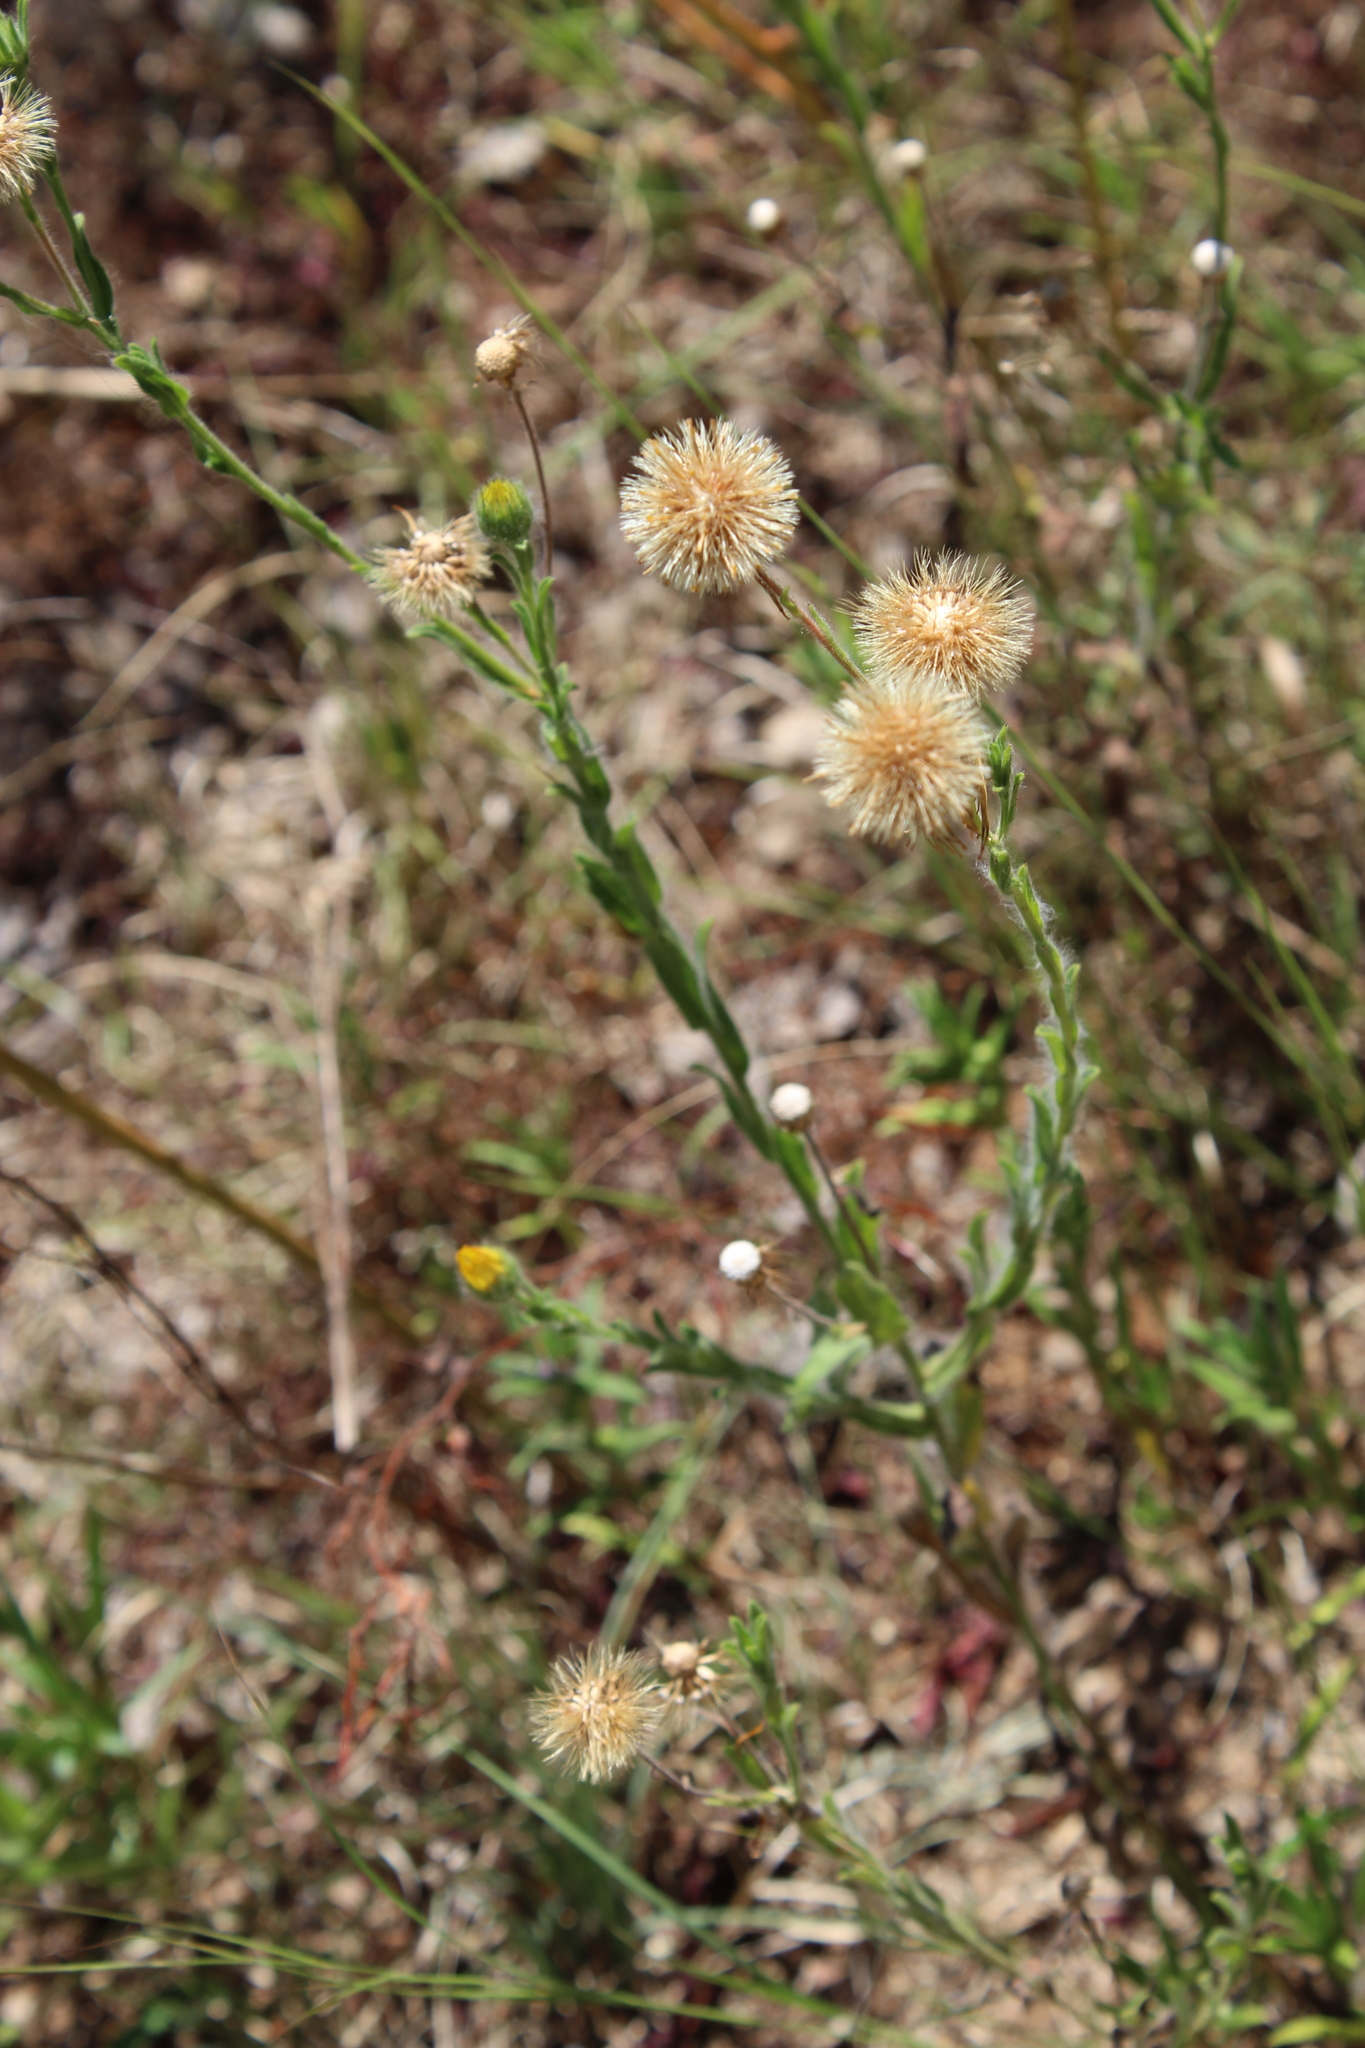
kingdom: Plantae
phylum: Tracheophyta
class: Magnoliopsida
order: Asterales
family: Asteraceae
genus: Bradburia
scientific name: Bradburia pilosa
